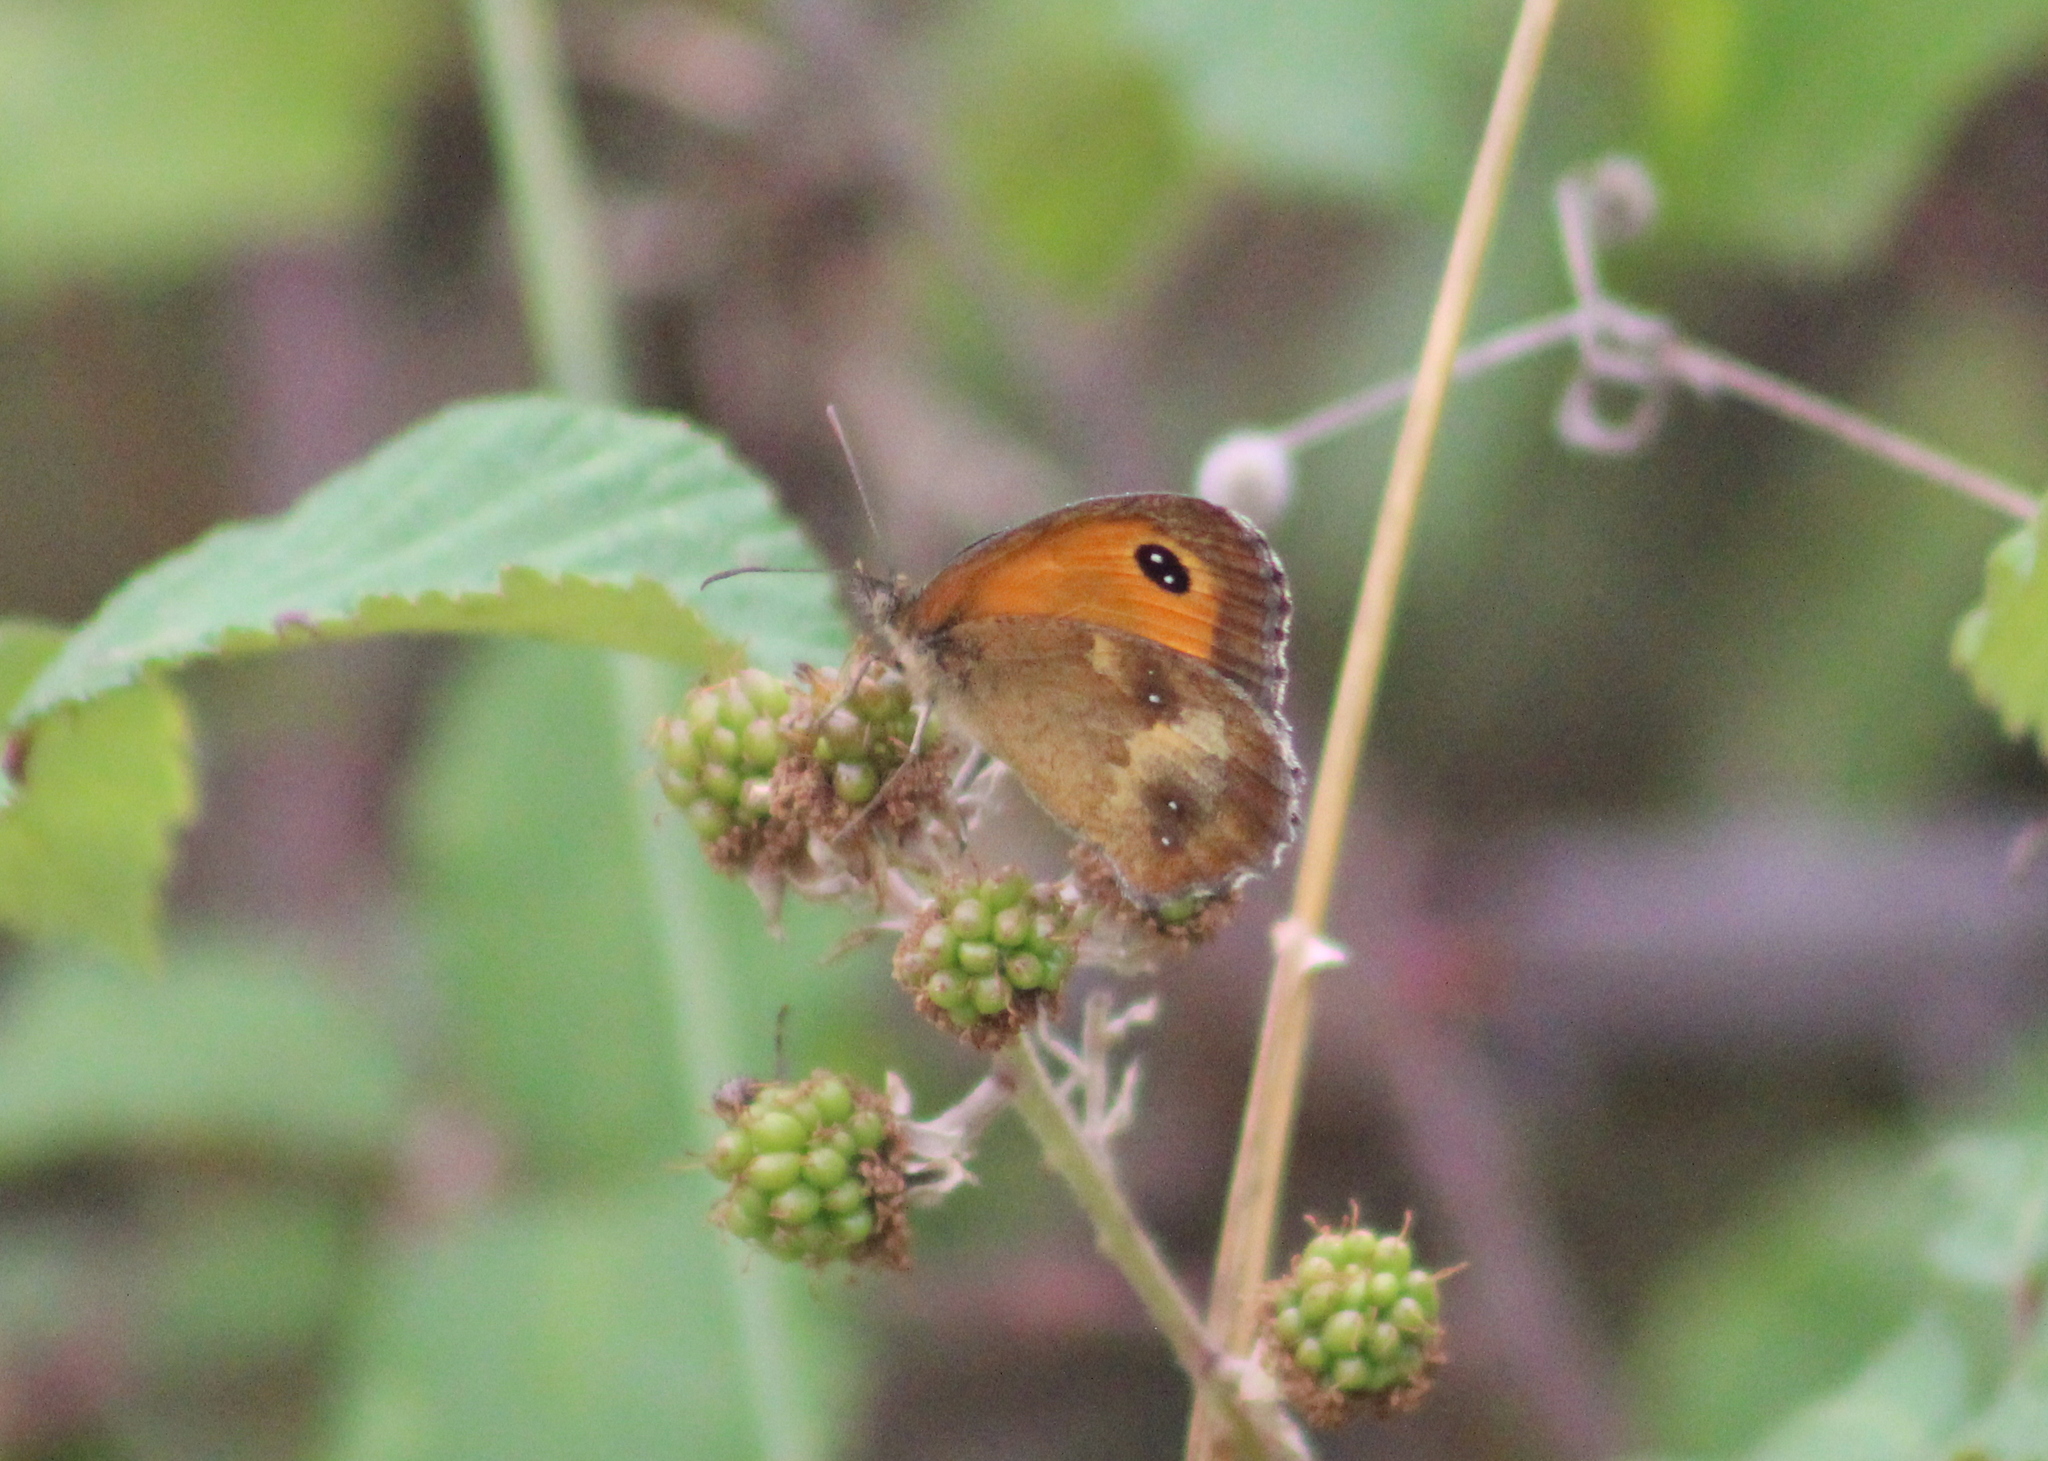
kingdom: Animalia
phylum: Arthropoda
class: Insecta
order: Lepidoptera
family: Nymphalidae
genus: Pyronia
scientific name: Pyronia tithonus
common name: Gatekeeper
